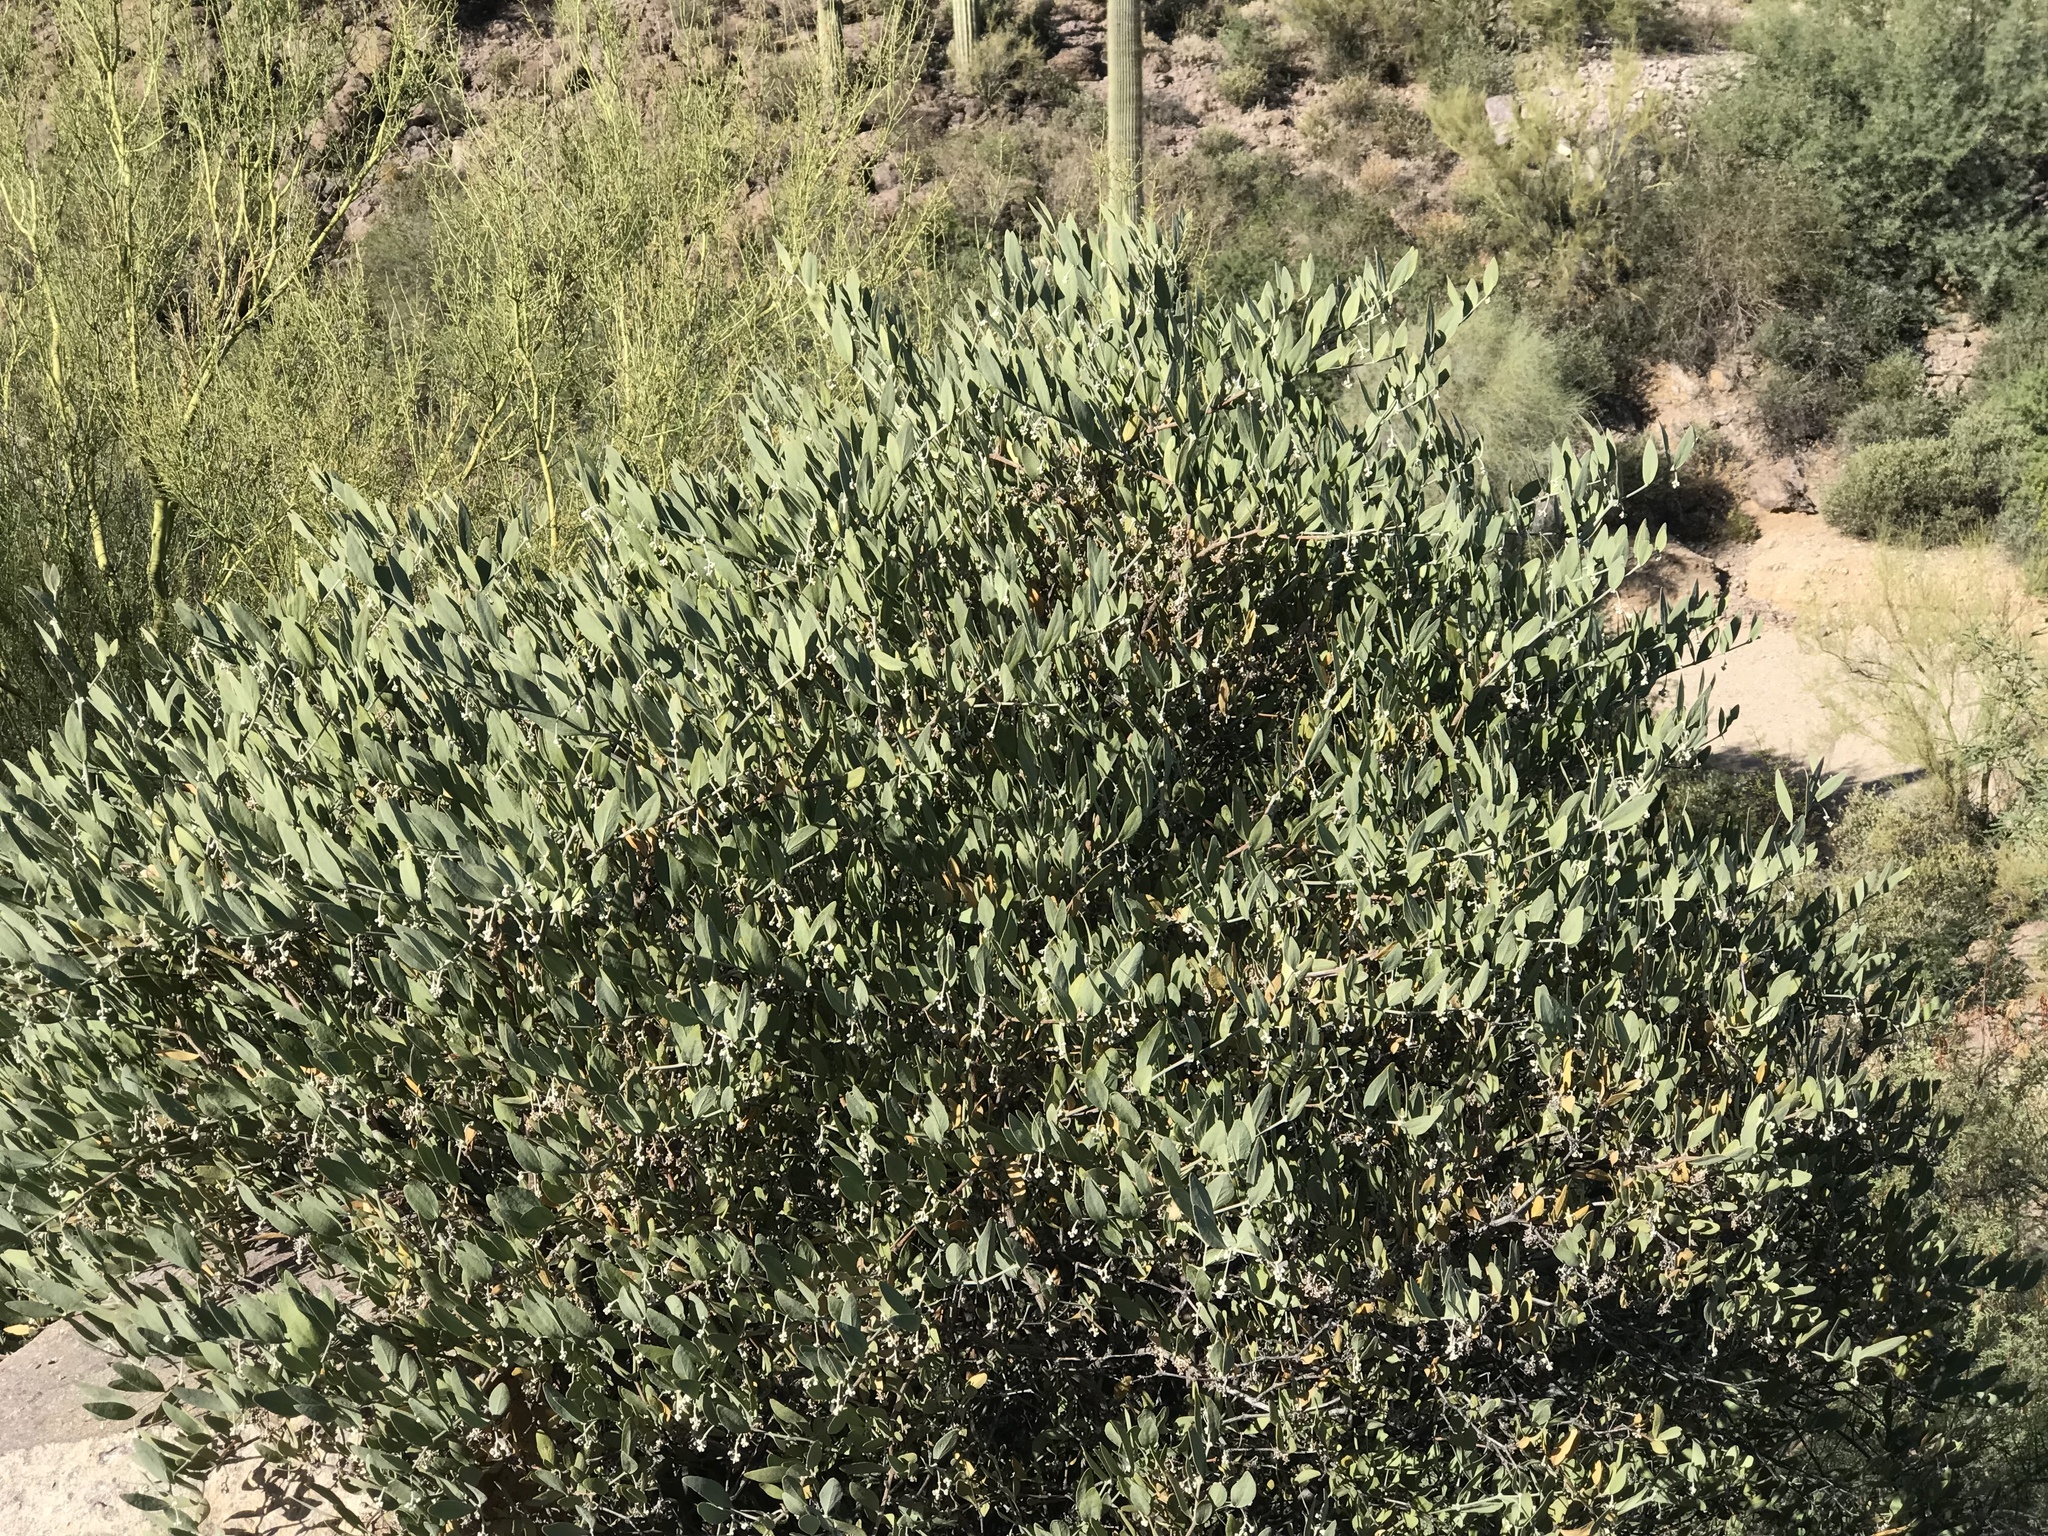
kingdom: Plantae
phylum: Tracheophyta
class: Magnoliopsida
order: Caryophyllales
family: Simmondsiaceae
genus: Simmondsia
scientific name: Simmondsia chinensis
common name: Jojoba
